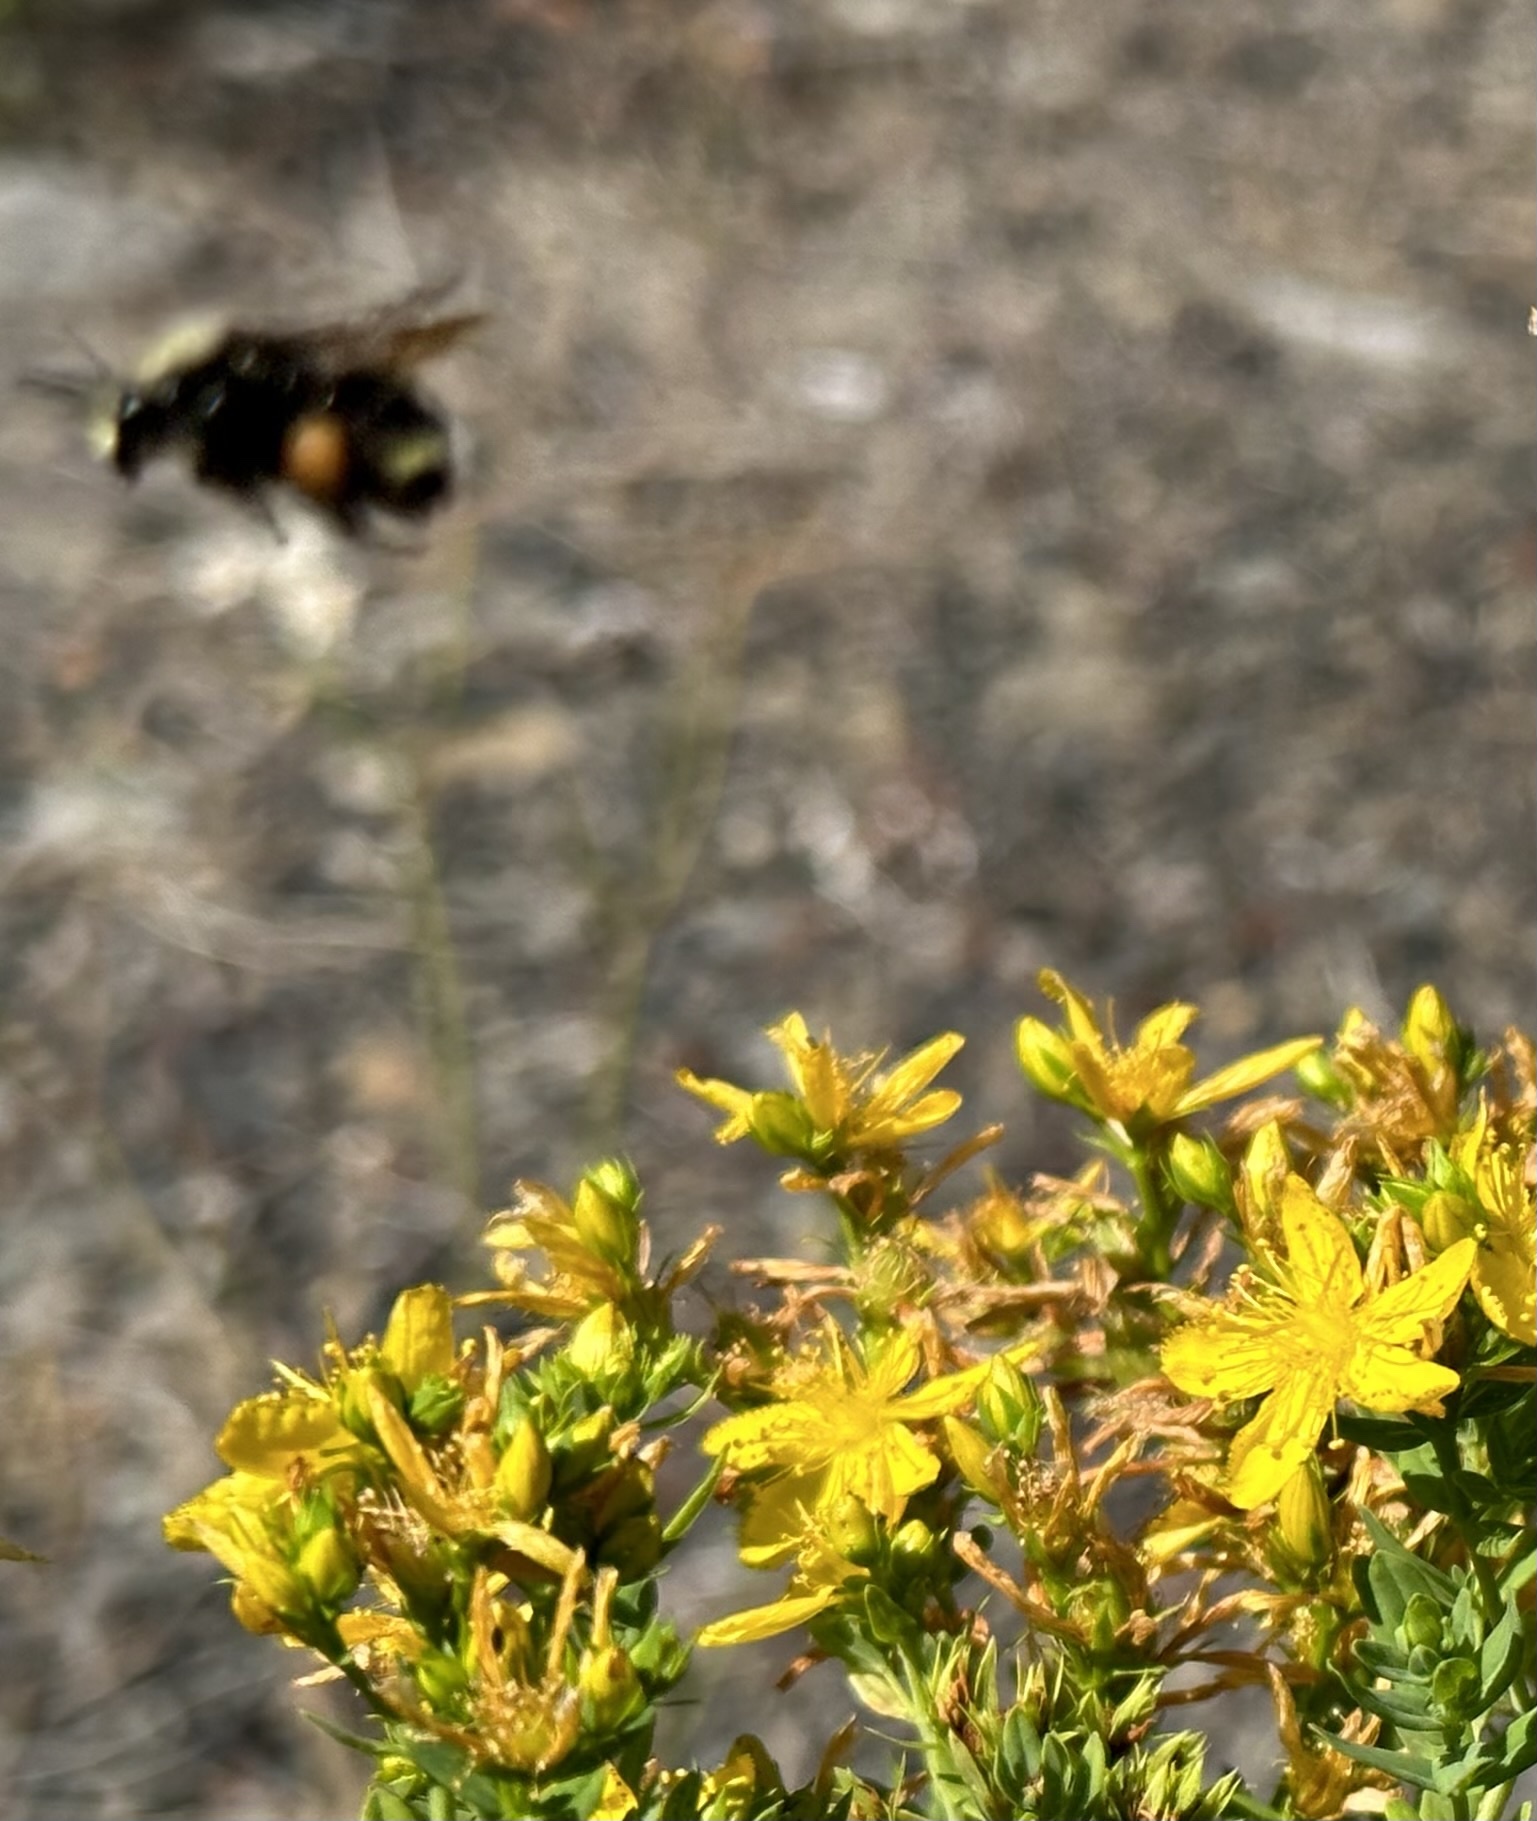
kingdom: Plantae
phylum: Tracheophyta
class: Magnoliopsida
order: Malpighiales
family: Hypericaceae
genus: Hypericum
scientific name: Hypericum perforatum
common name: Common st. johnswort
